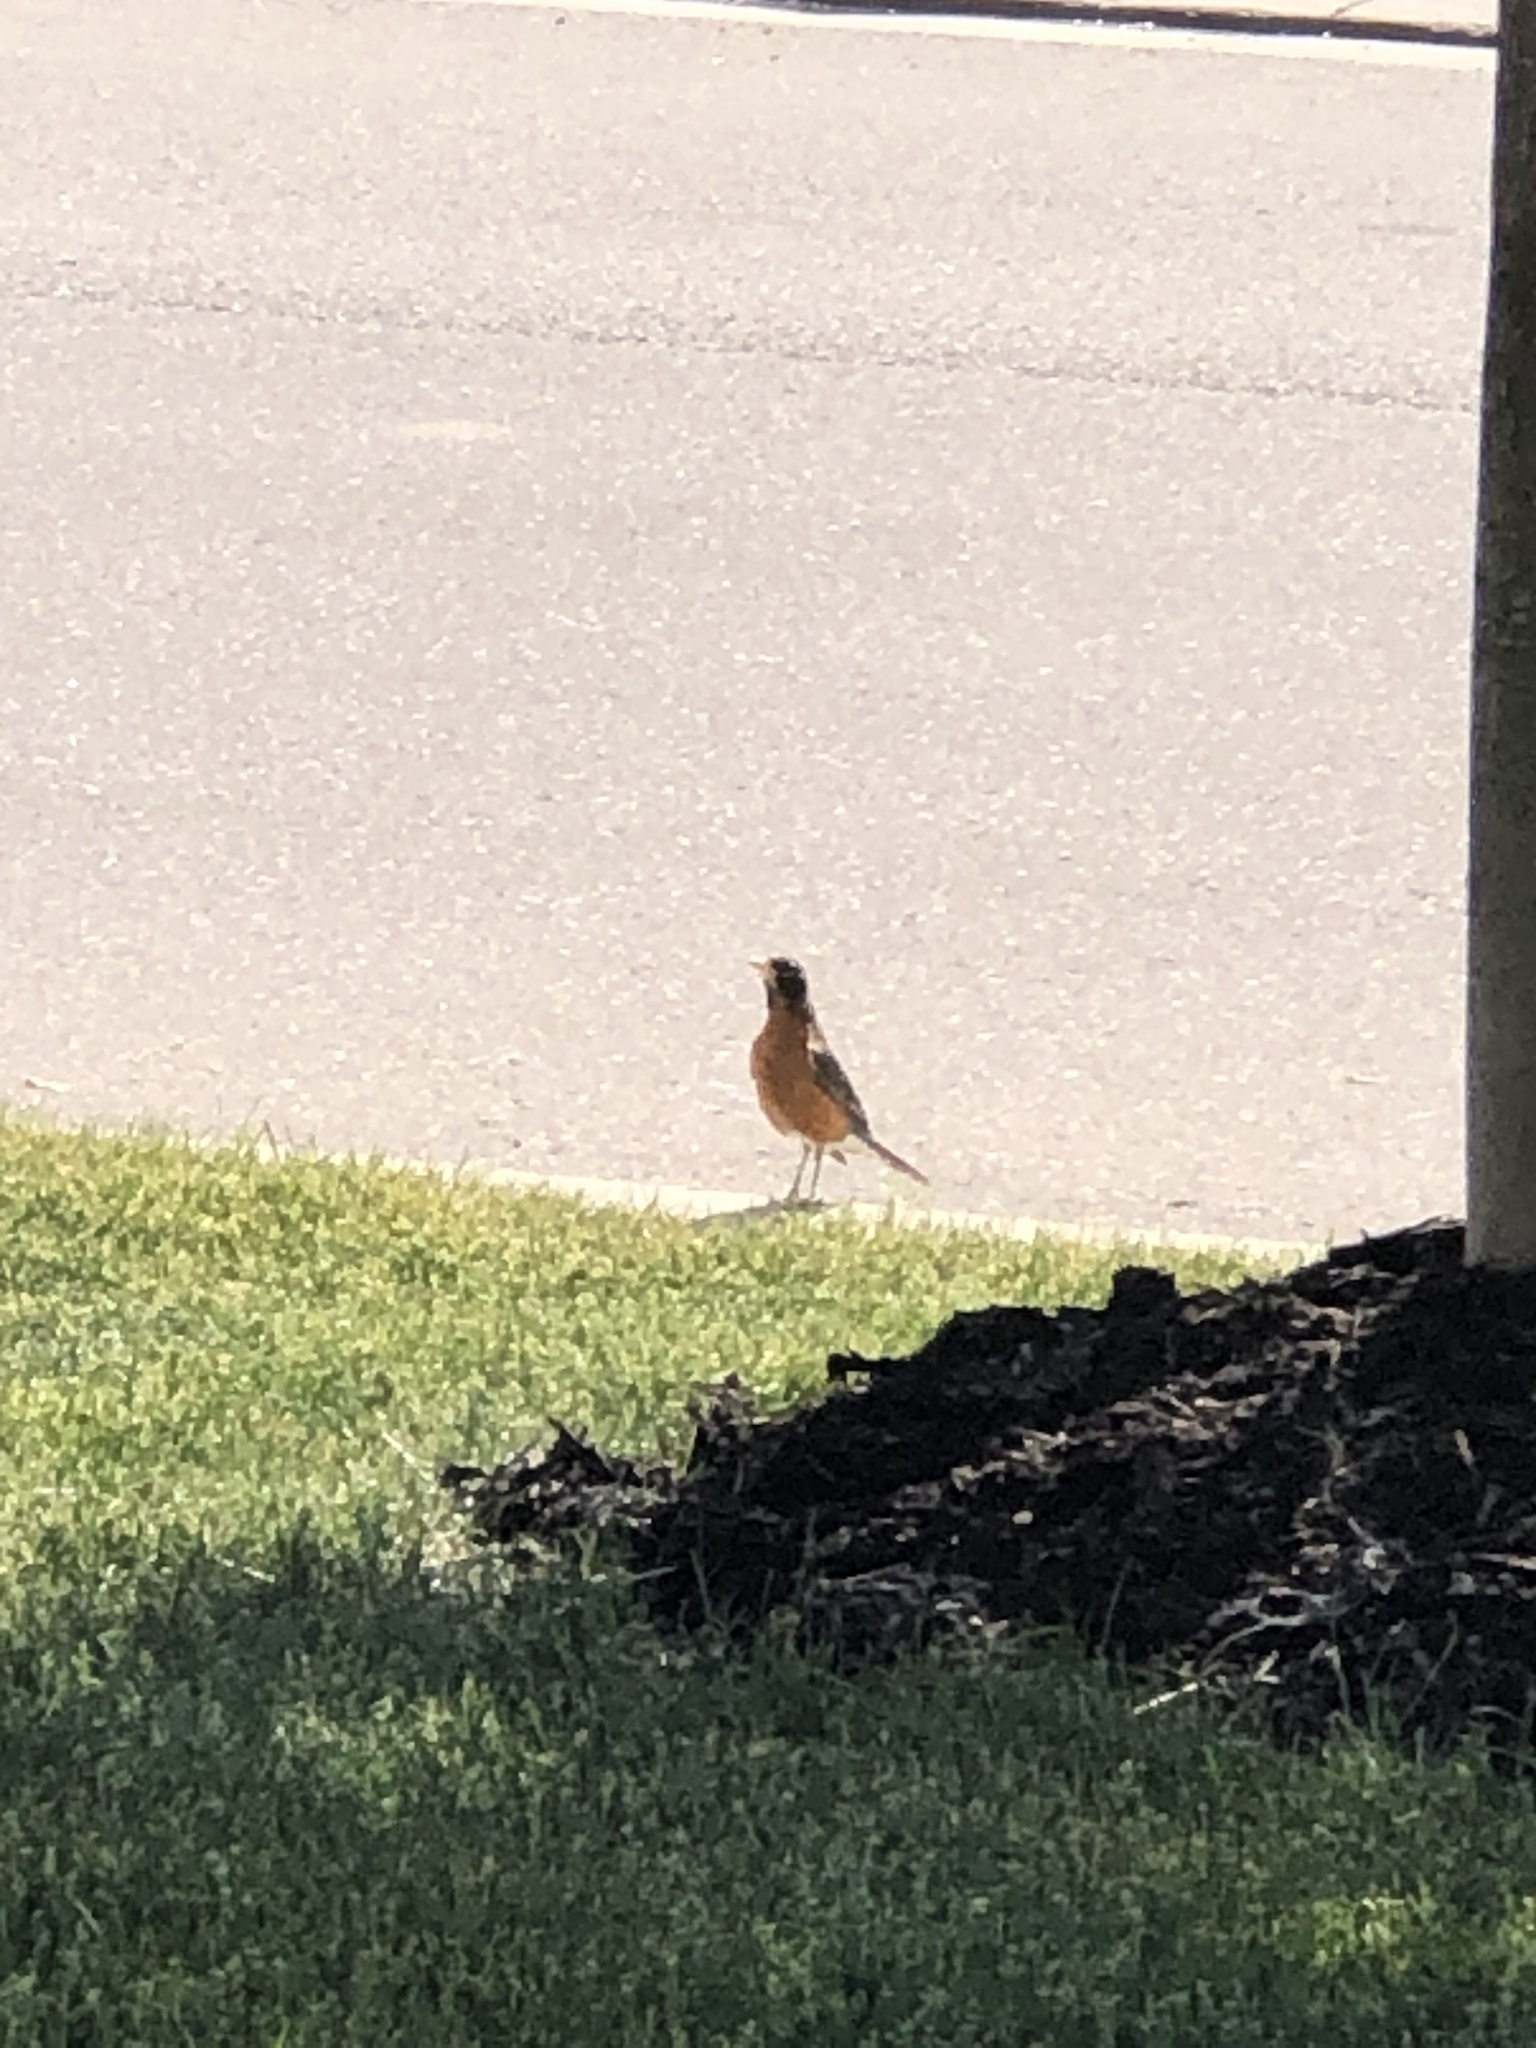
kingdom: Animalia
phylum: Chordata
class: Aves
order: Passeriformes
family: Turdidae
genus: Turdus
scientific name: Turdus migratorius
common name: American robin
